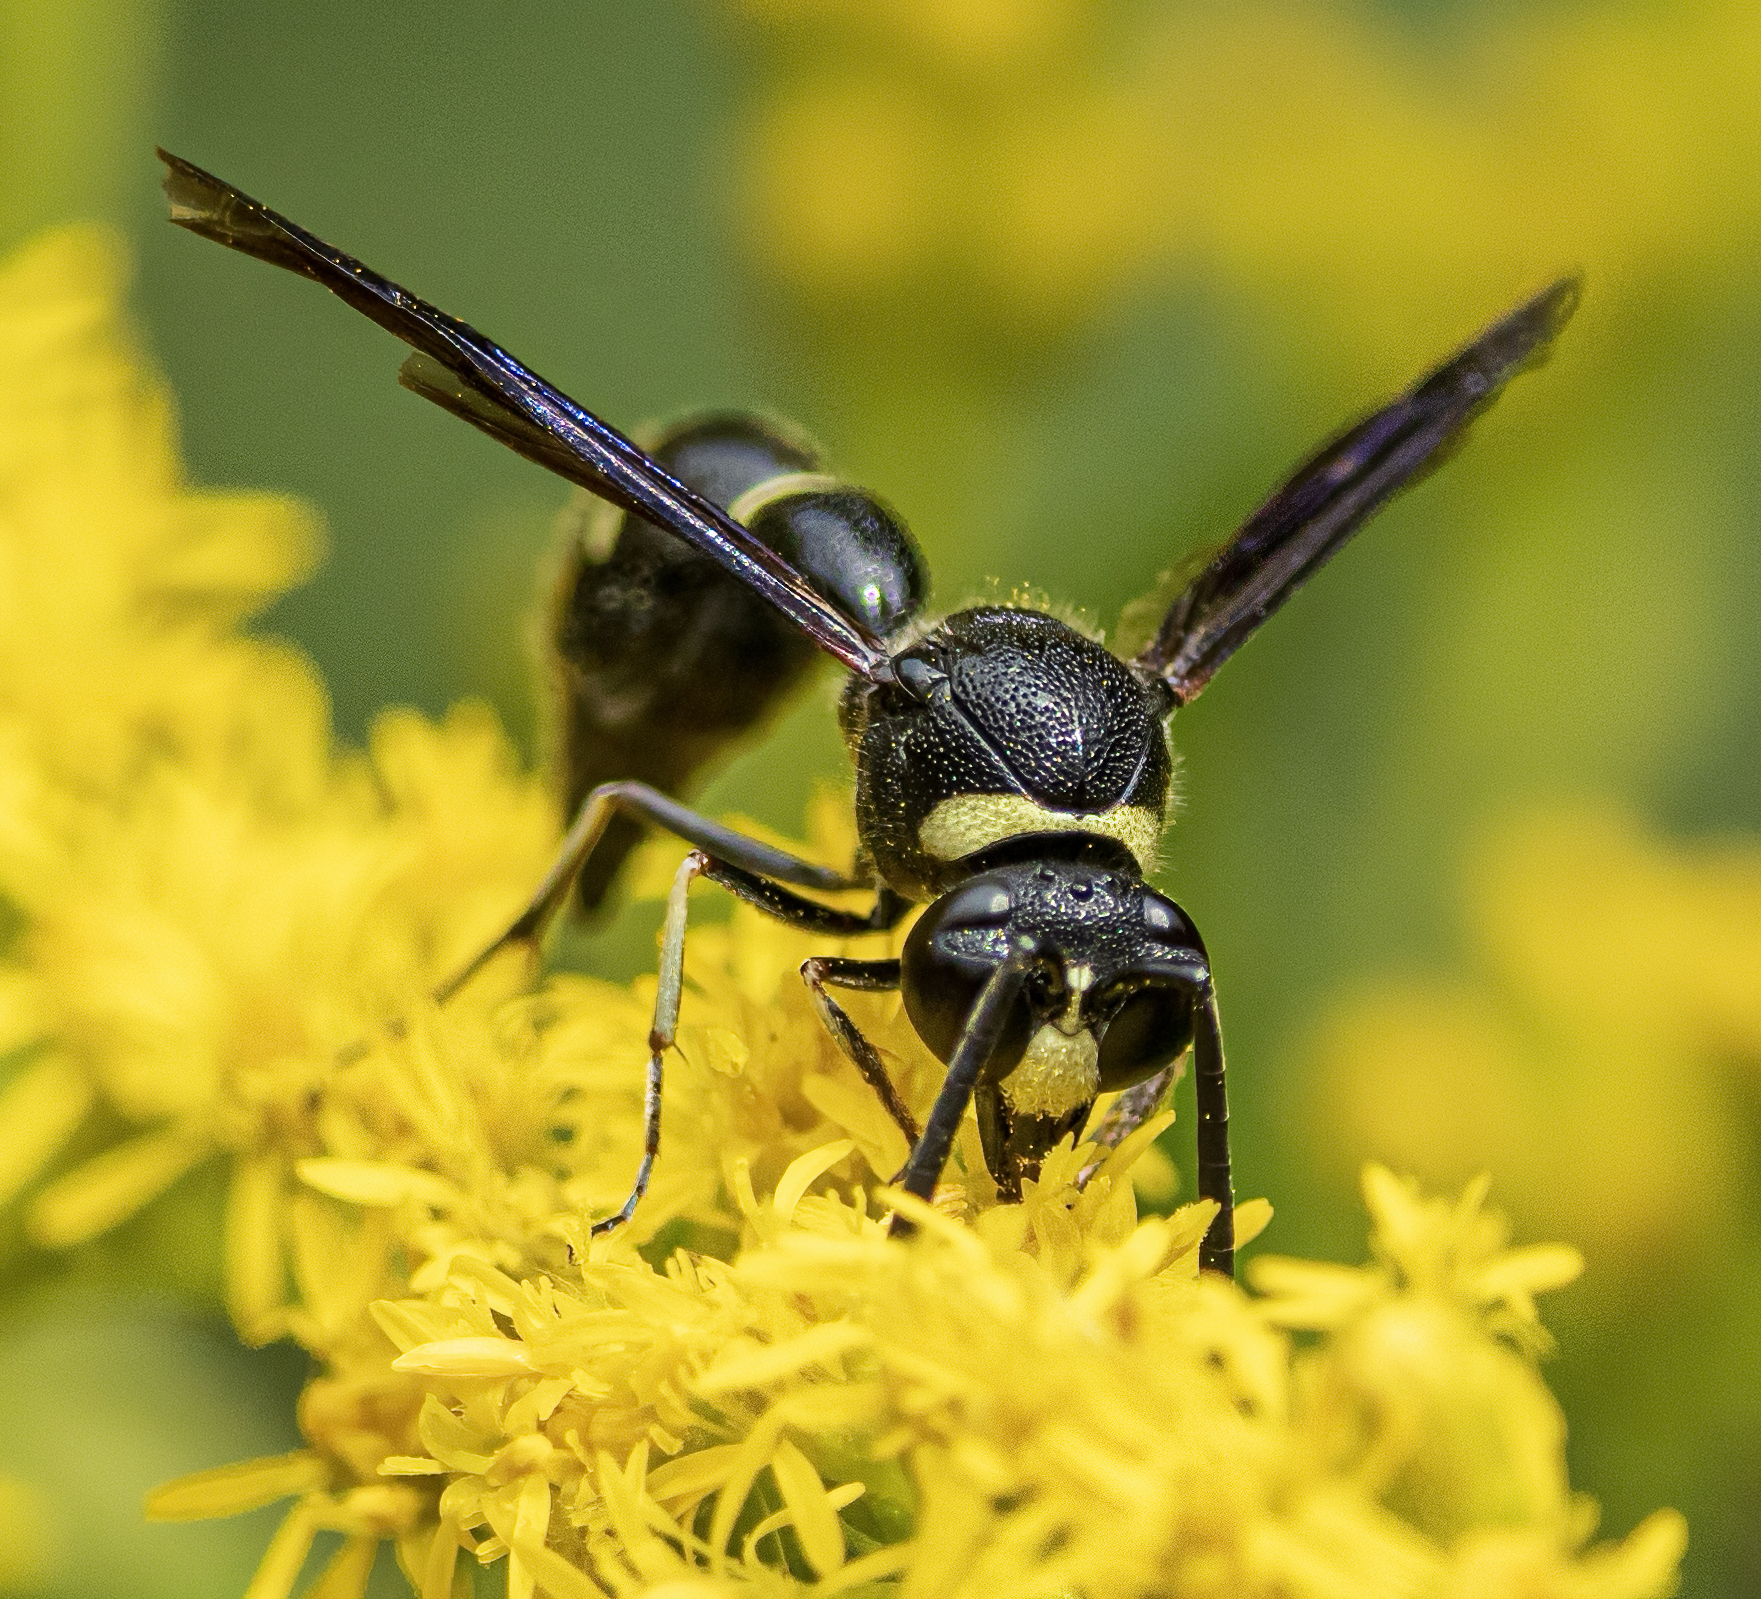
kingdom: Animalia
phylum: Arthropoda
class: Insecta
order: Hymenoptera
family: Vespidae
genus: Eumenes
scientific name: Eumenes fraternus
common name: Fraternal potter wasp
